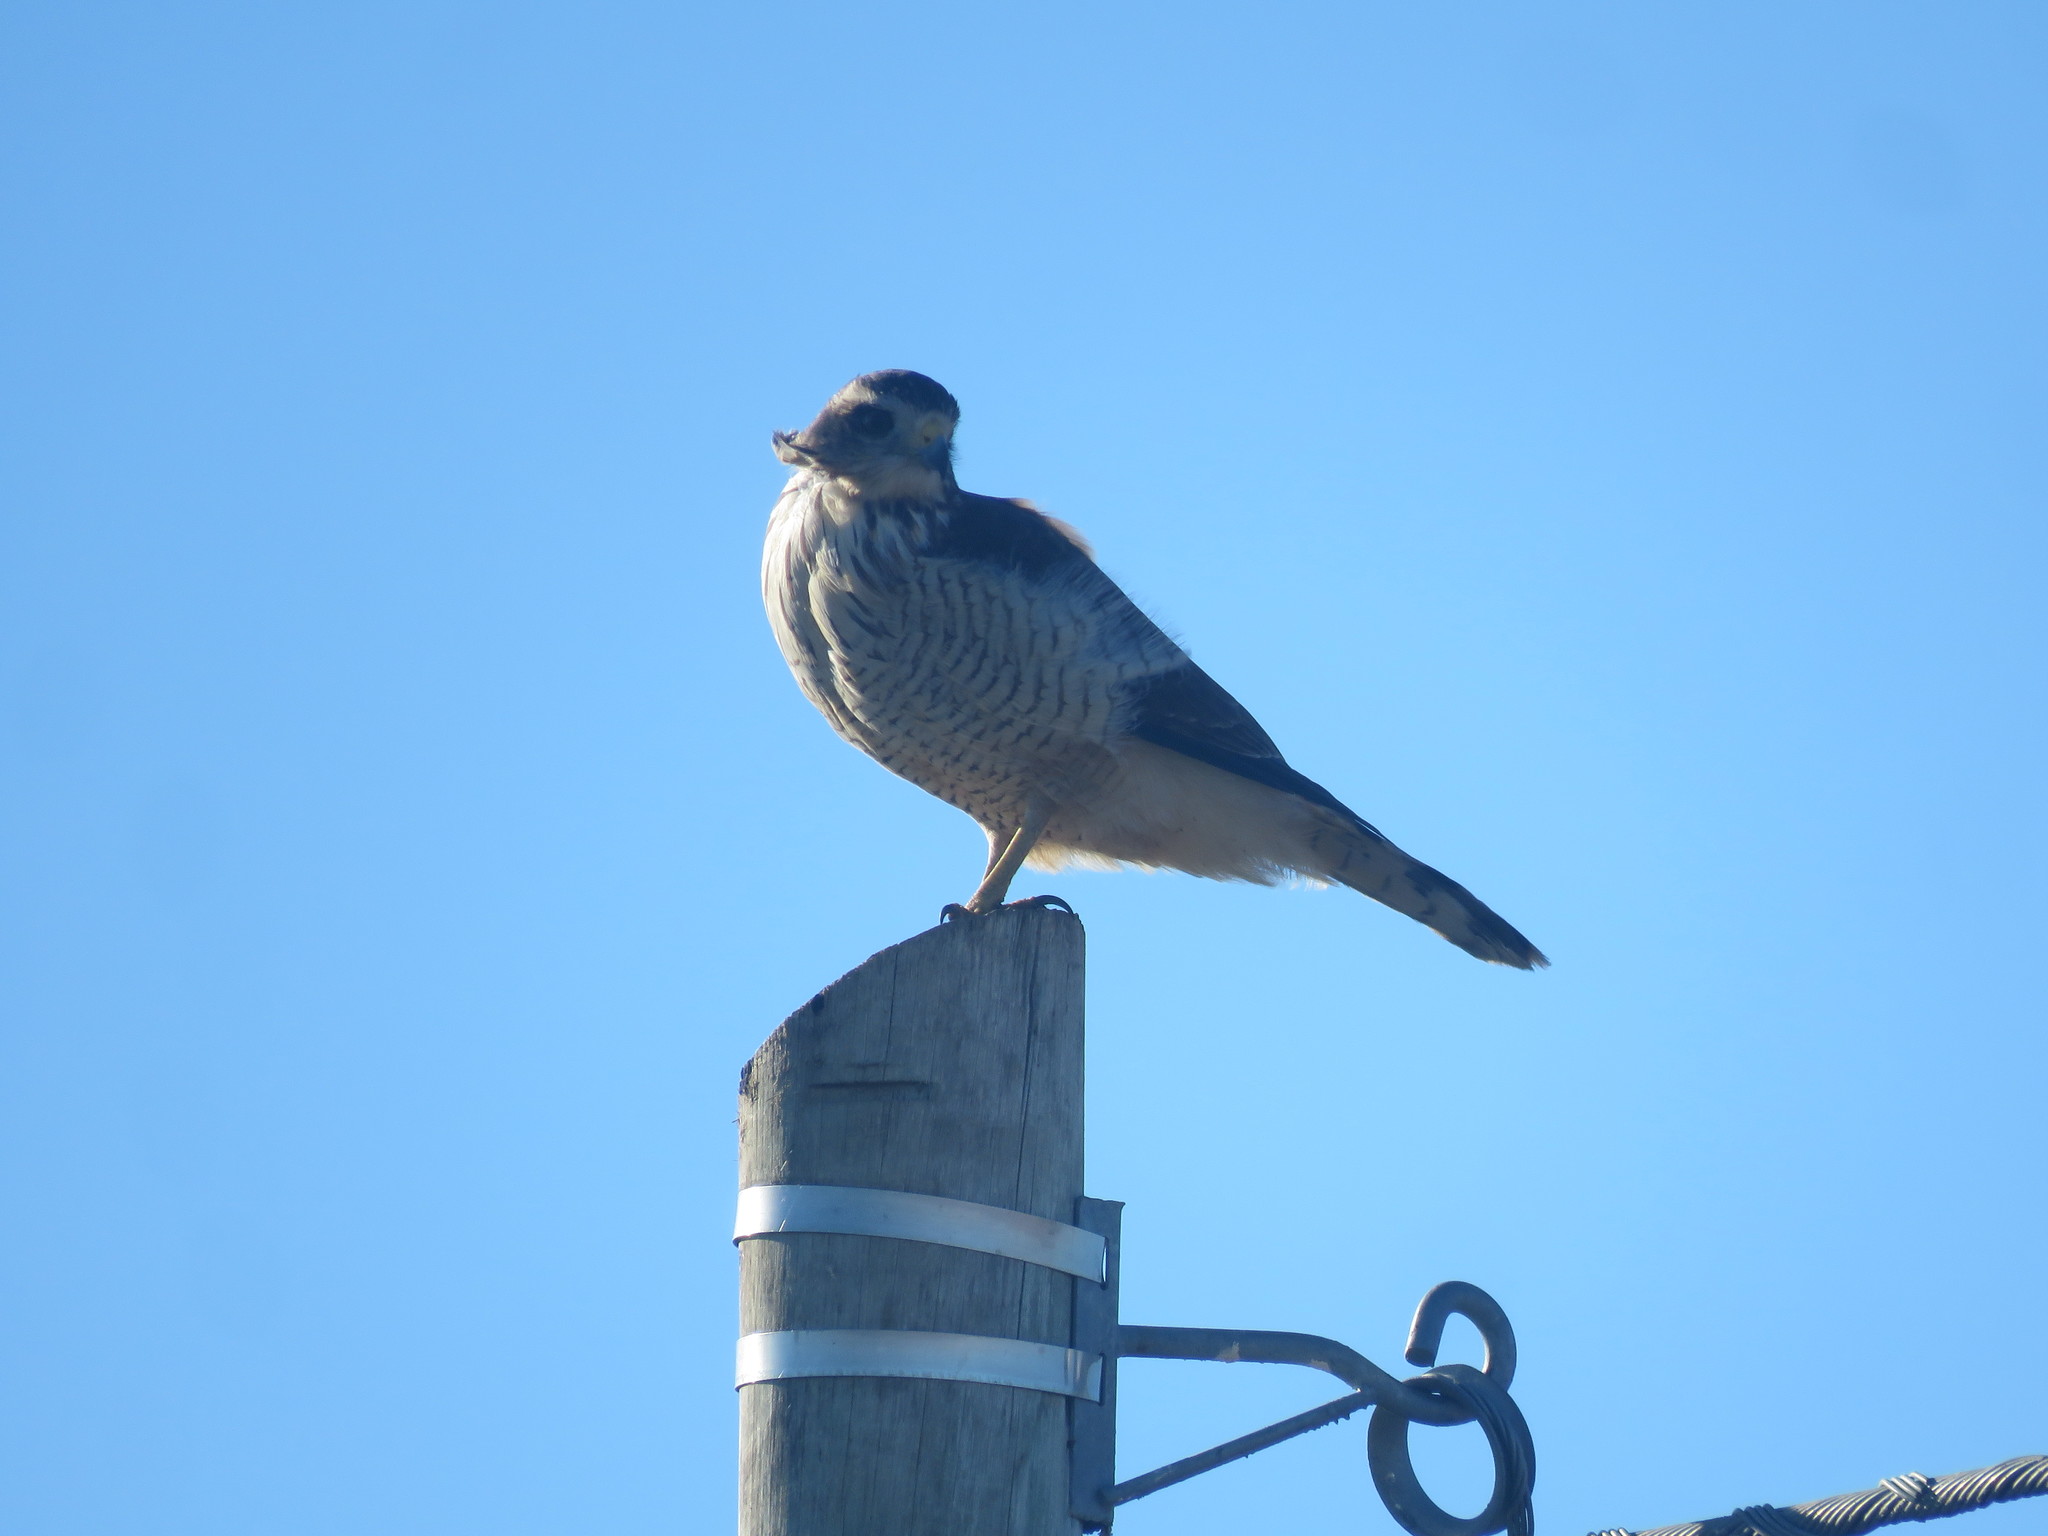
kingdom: Animalia
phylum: Chordata
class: Aves
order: Accipitriformes
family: Accipitridae
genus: Rupornis
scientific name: Rupornis magnirostris
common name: Roadside hawk
